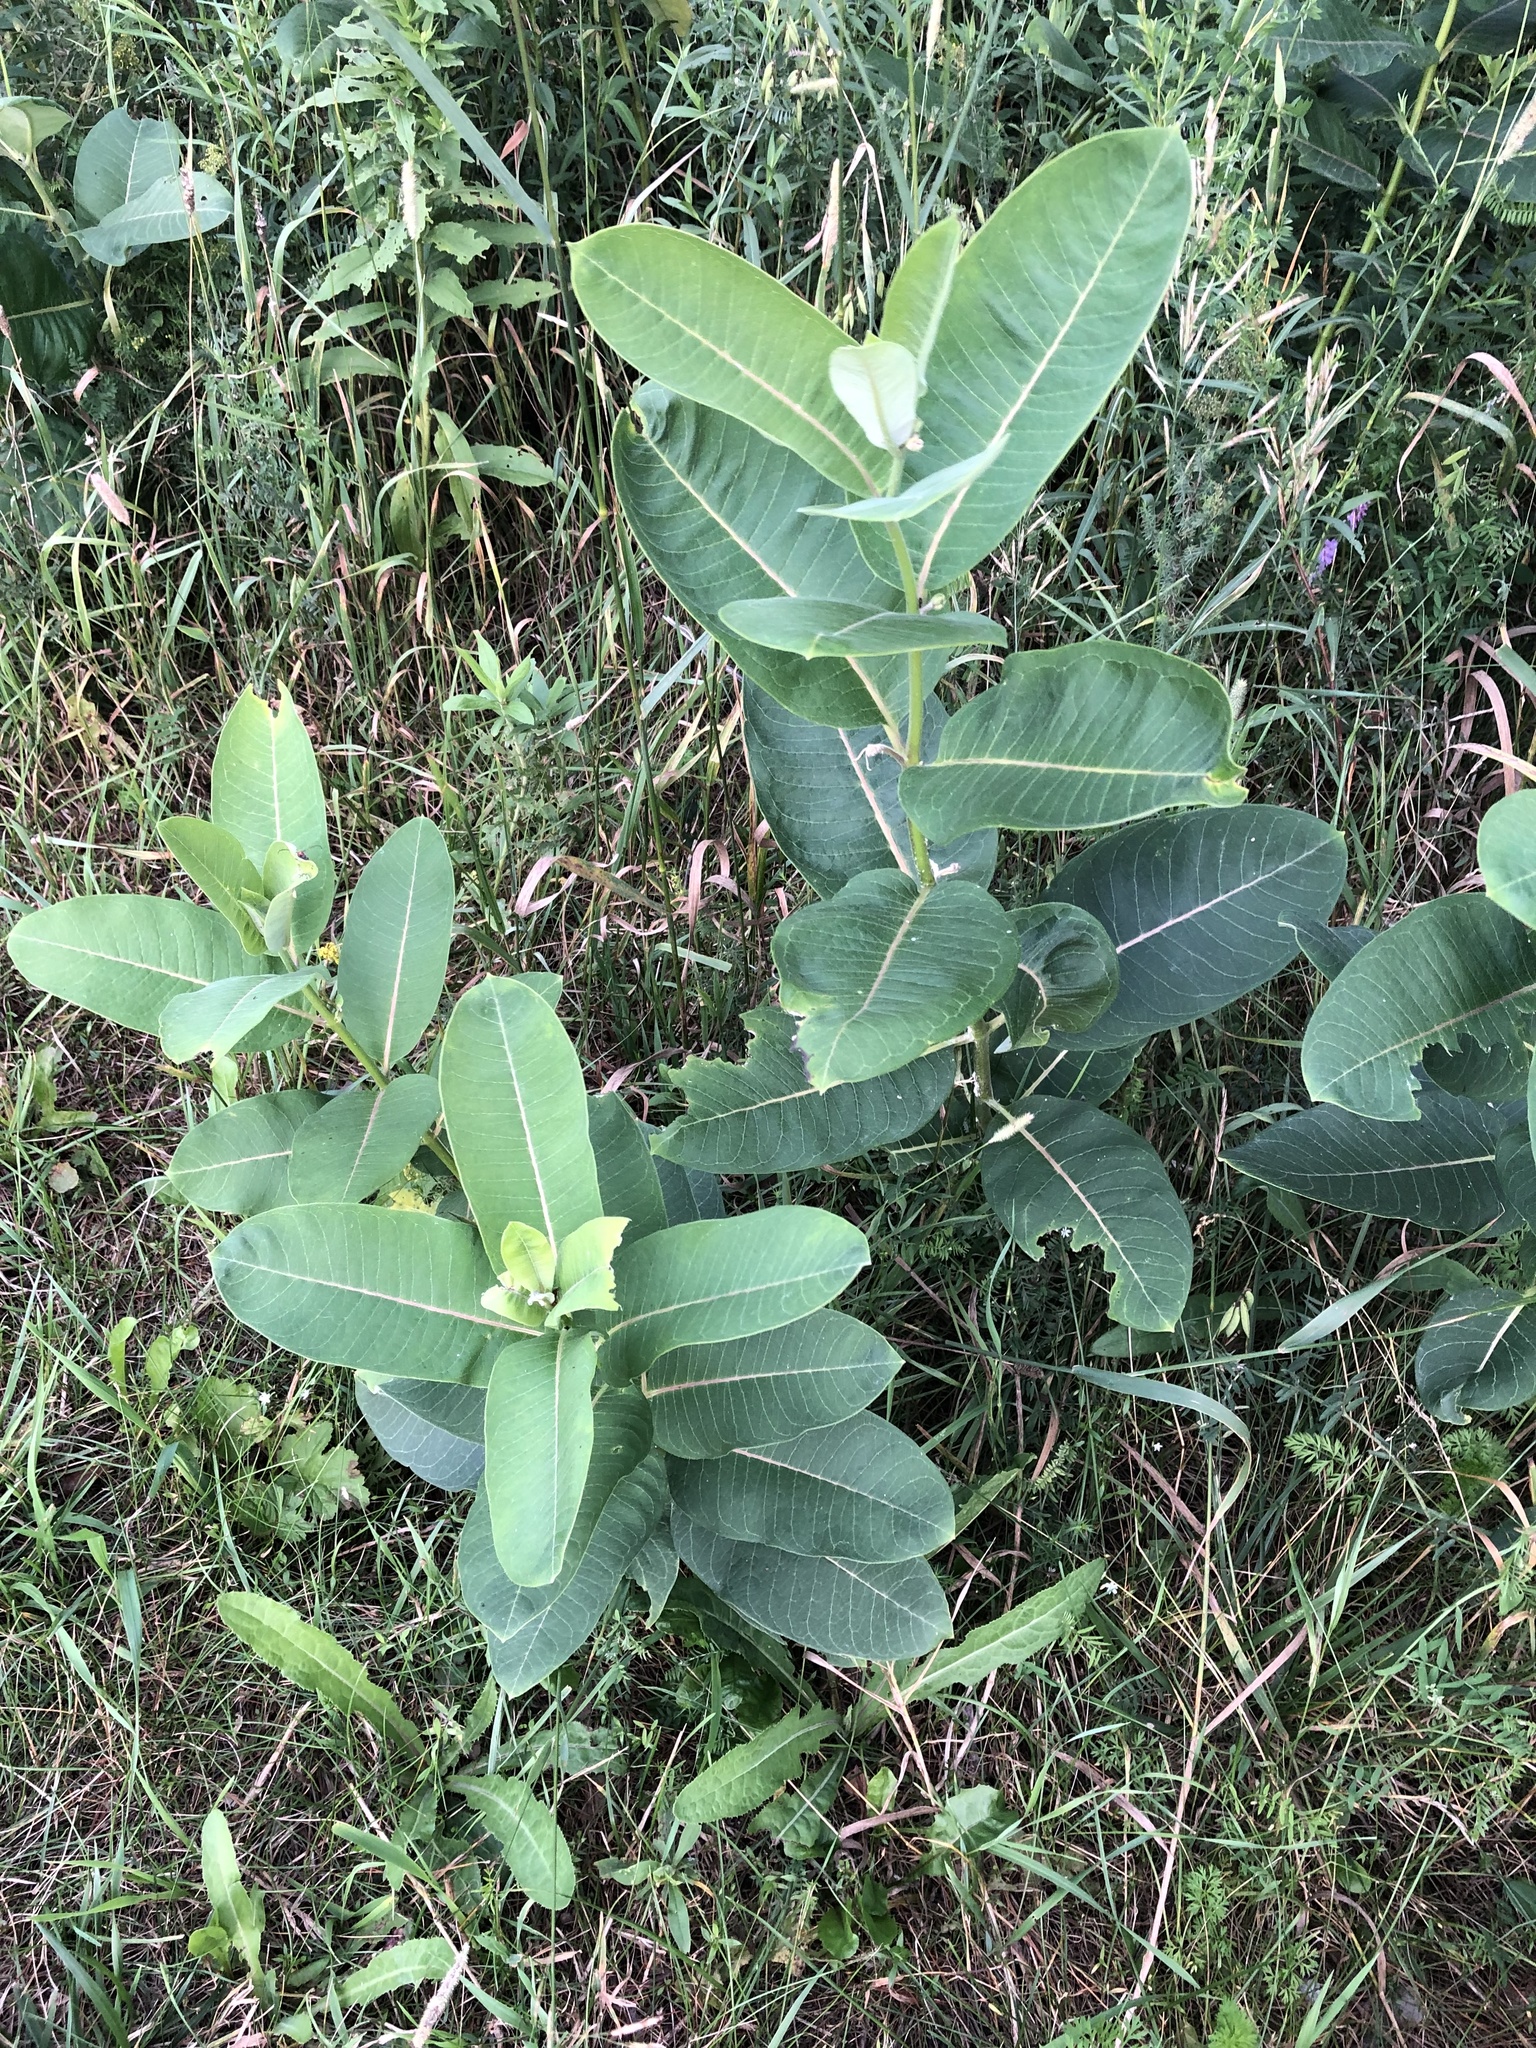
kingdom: Plantae
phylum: Tracheophyta
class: Magnoliopsida
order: Gentianales
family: Apocynaceae
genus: Asclepias
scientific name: Asclepias syriaca
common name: Common milkweed
